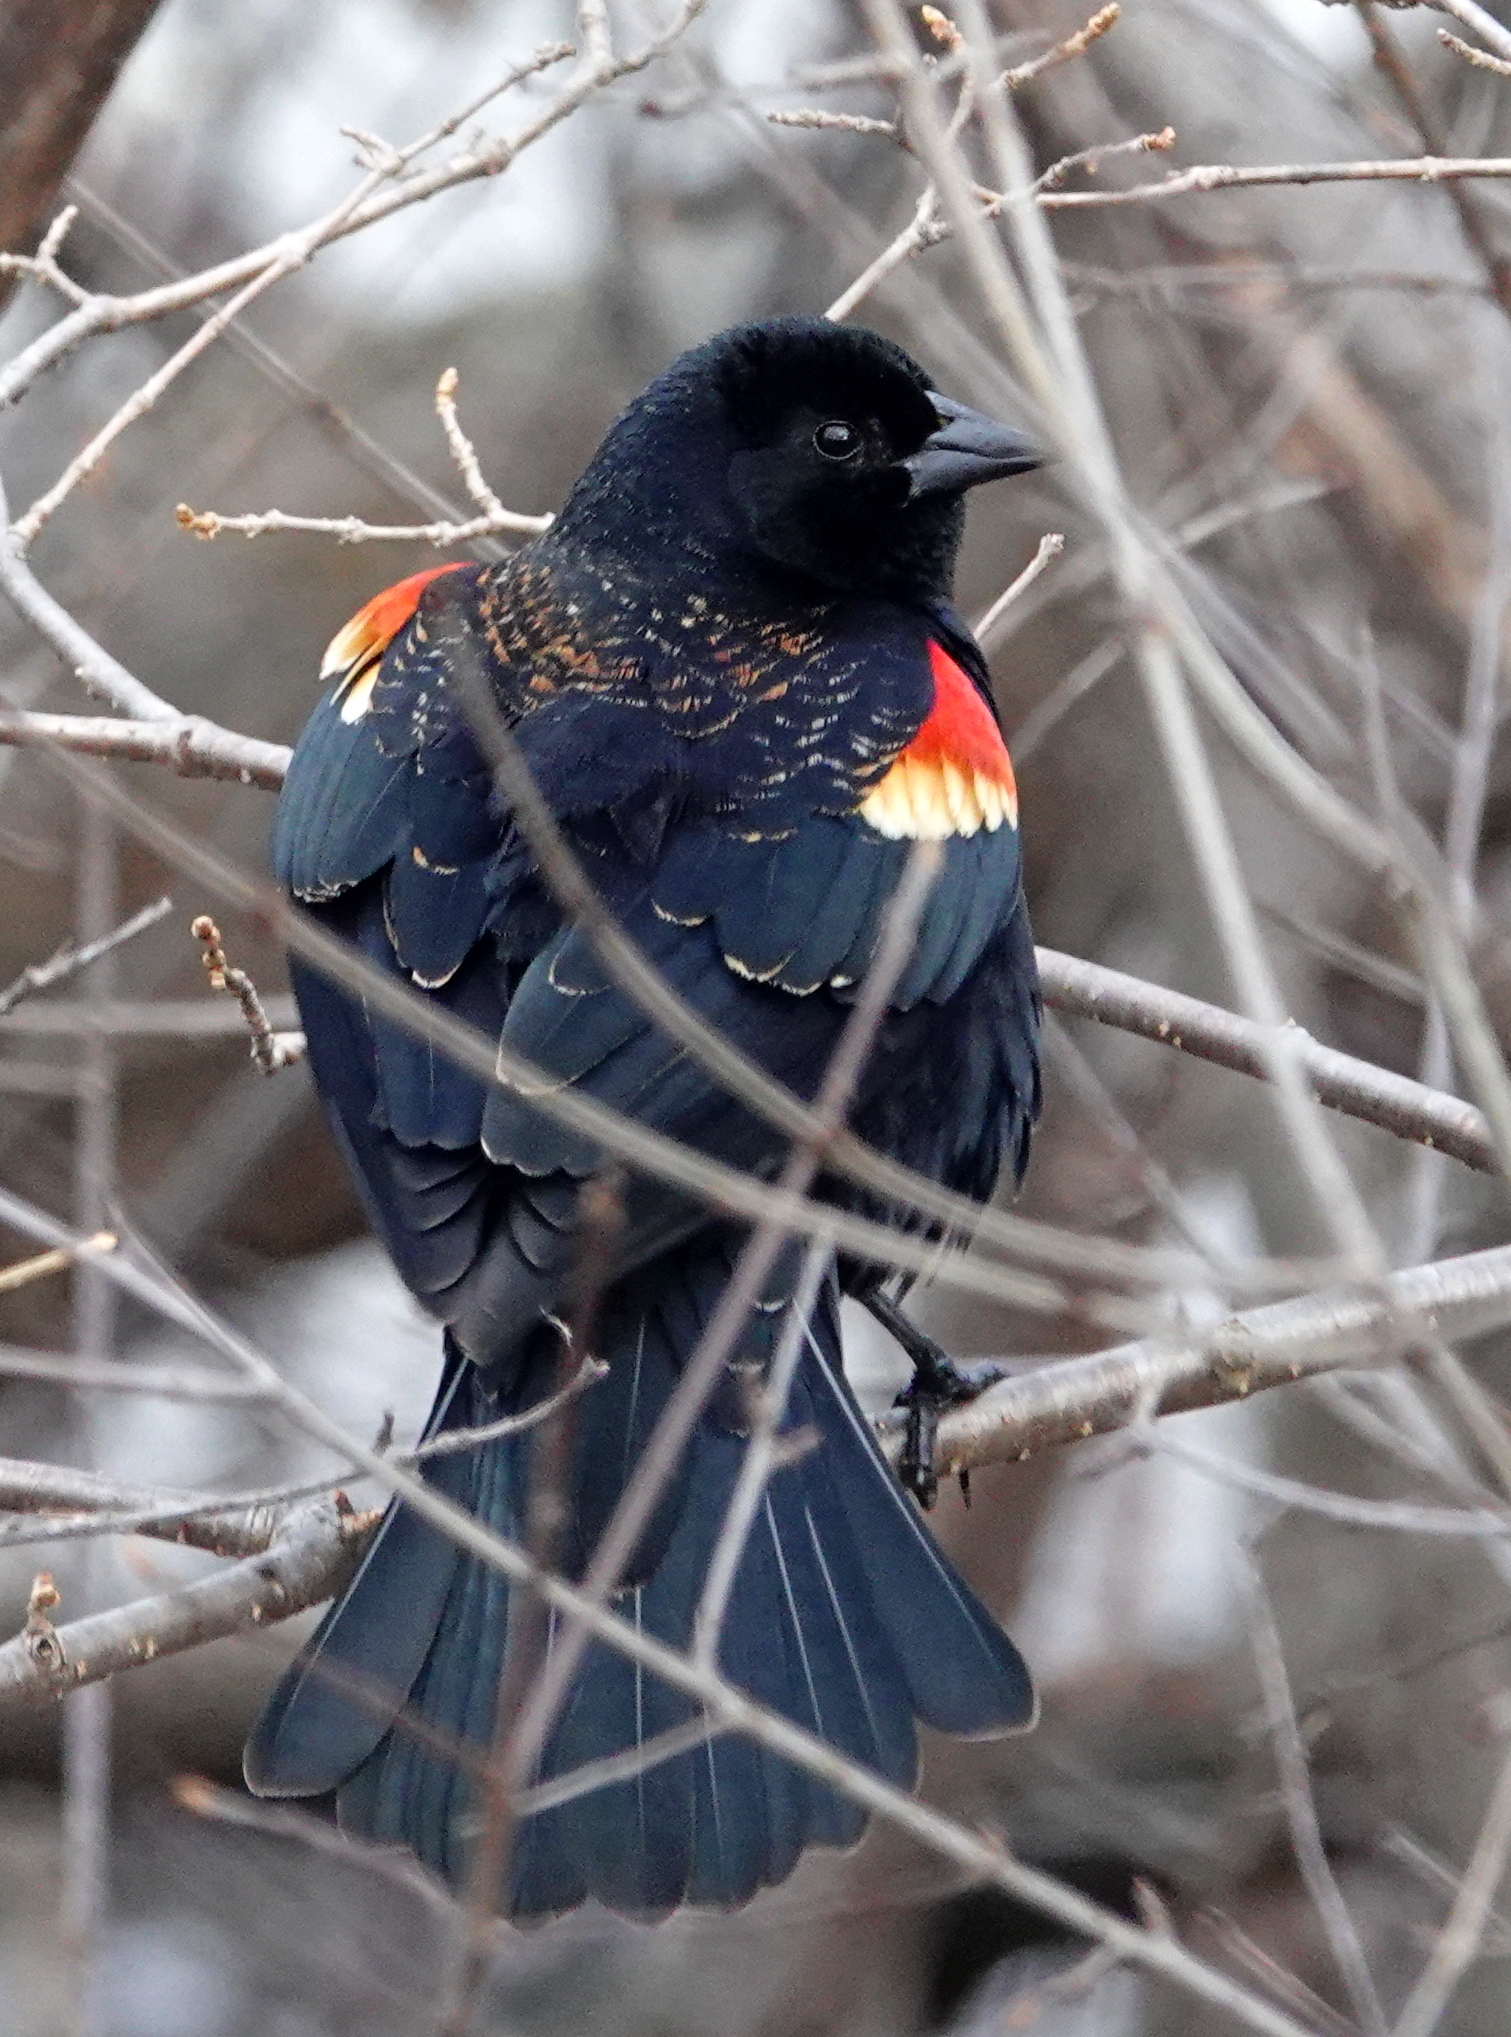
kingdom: Animalia
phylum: Chordata
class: Aves
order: Passeriformes
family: Icteridae
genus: Agelaius
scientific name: Agelaius phoeniceus
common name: Red-winged blackbird
